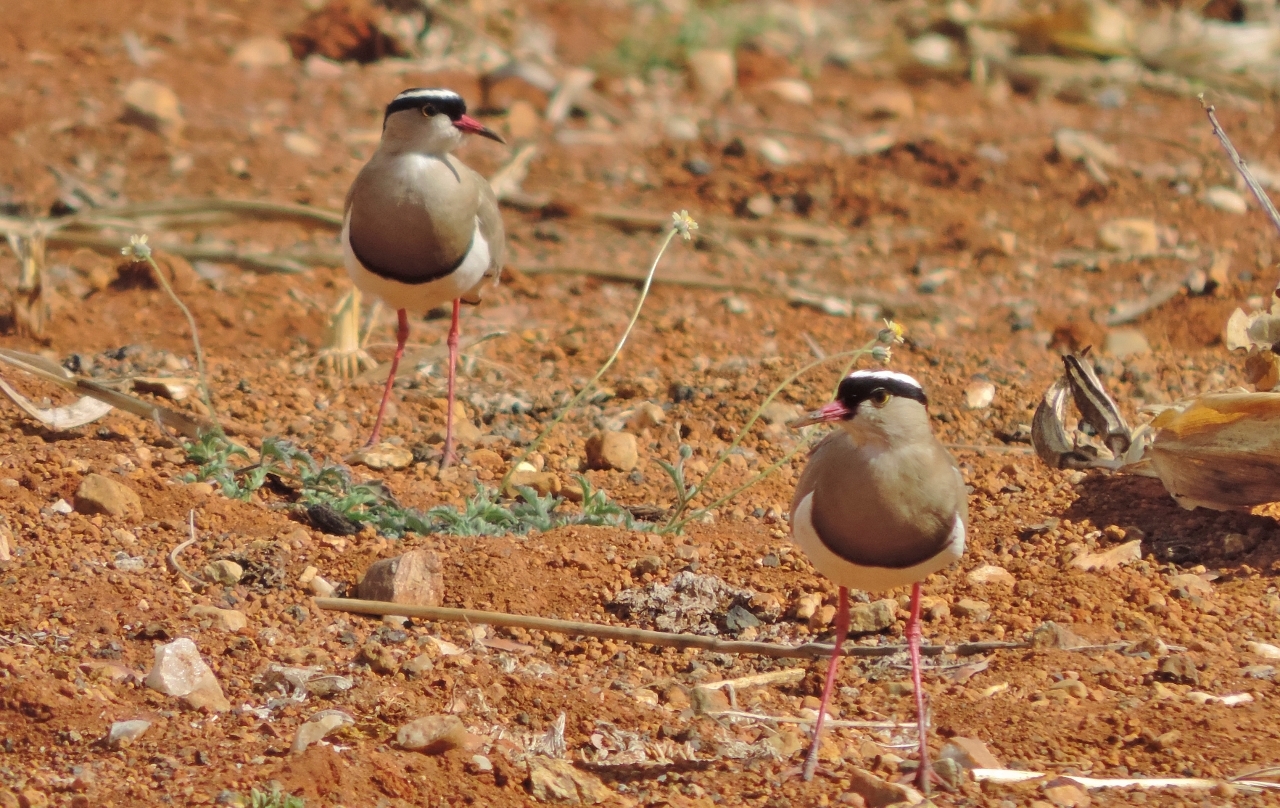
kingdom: Animalia
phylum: Chordata
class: Aves
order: Charadriiformes
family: Charadriidae
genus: Vanellus
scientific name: Vanellus coronatus
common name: Crowned lapwing
